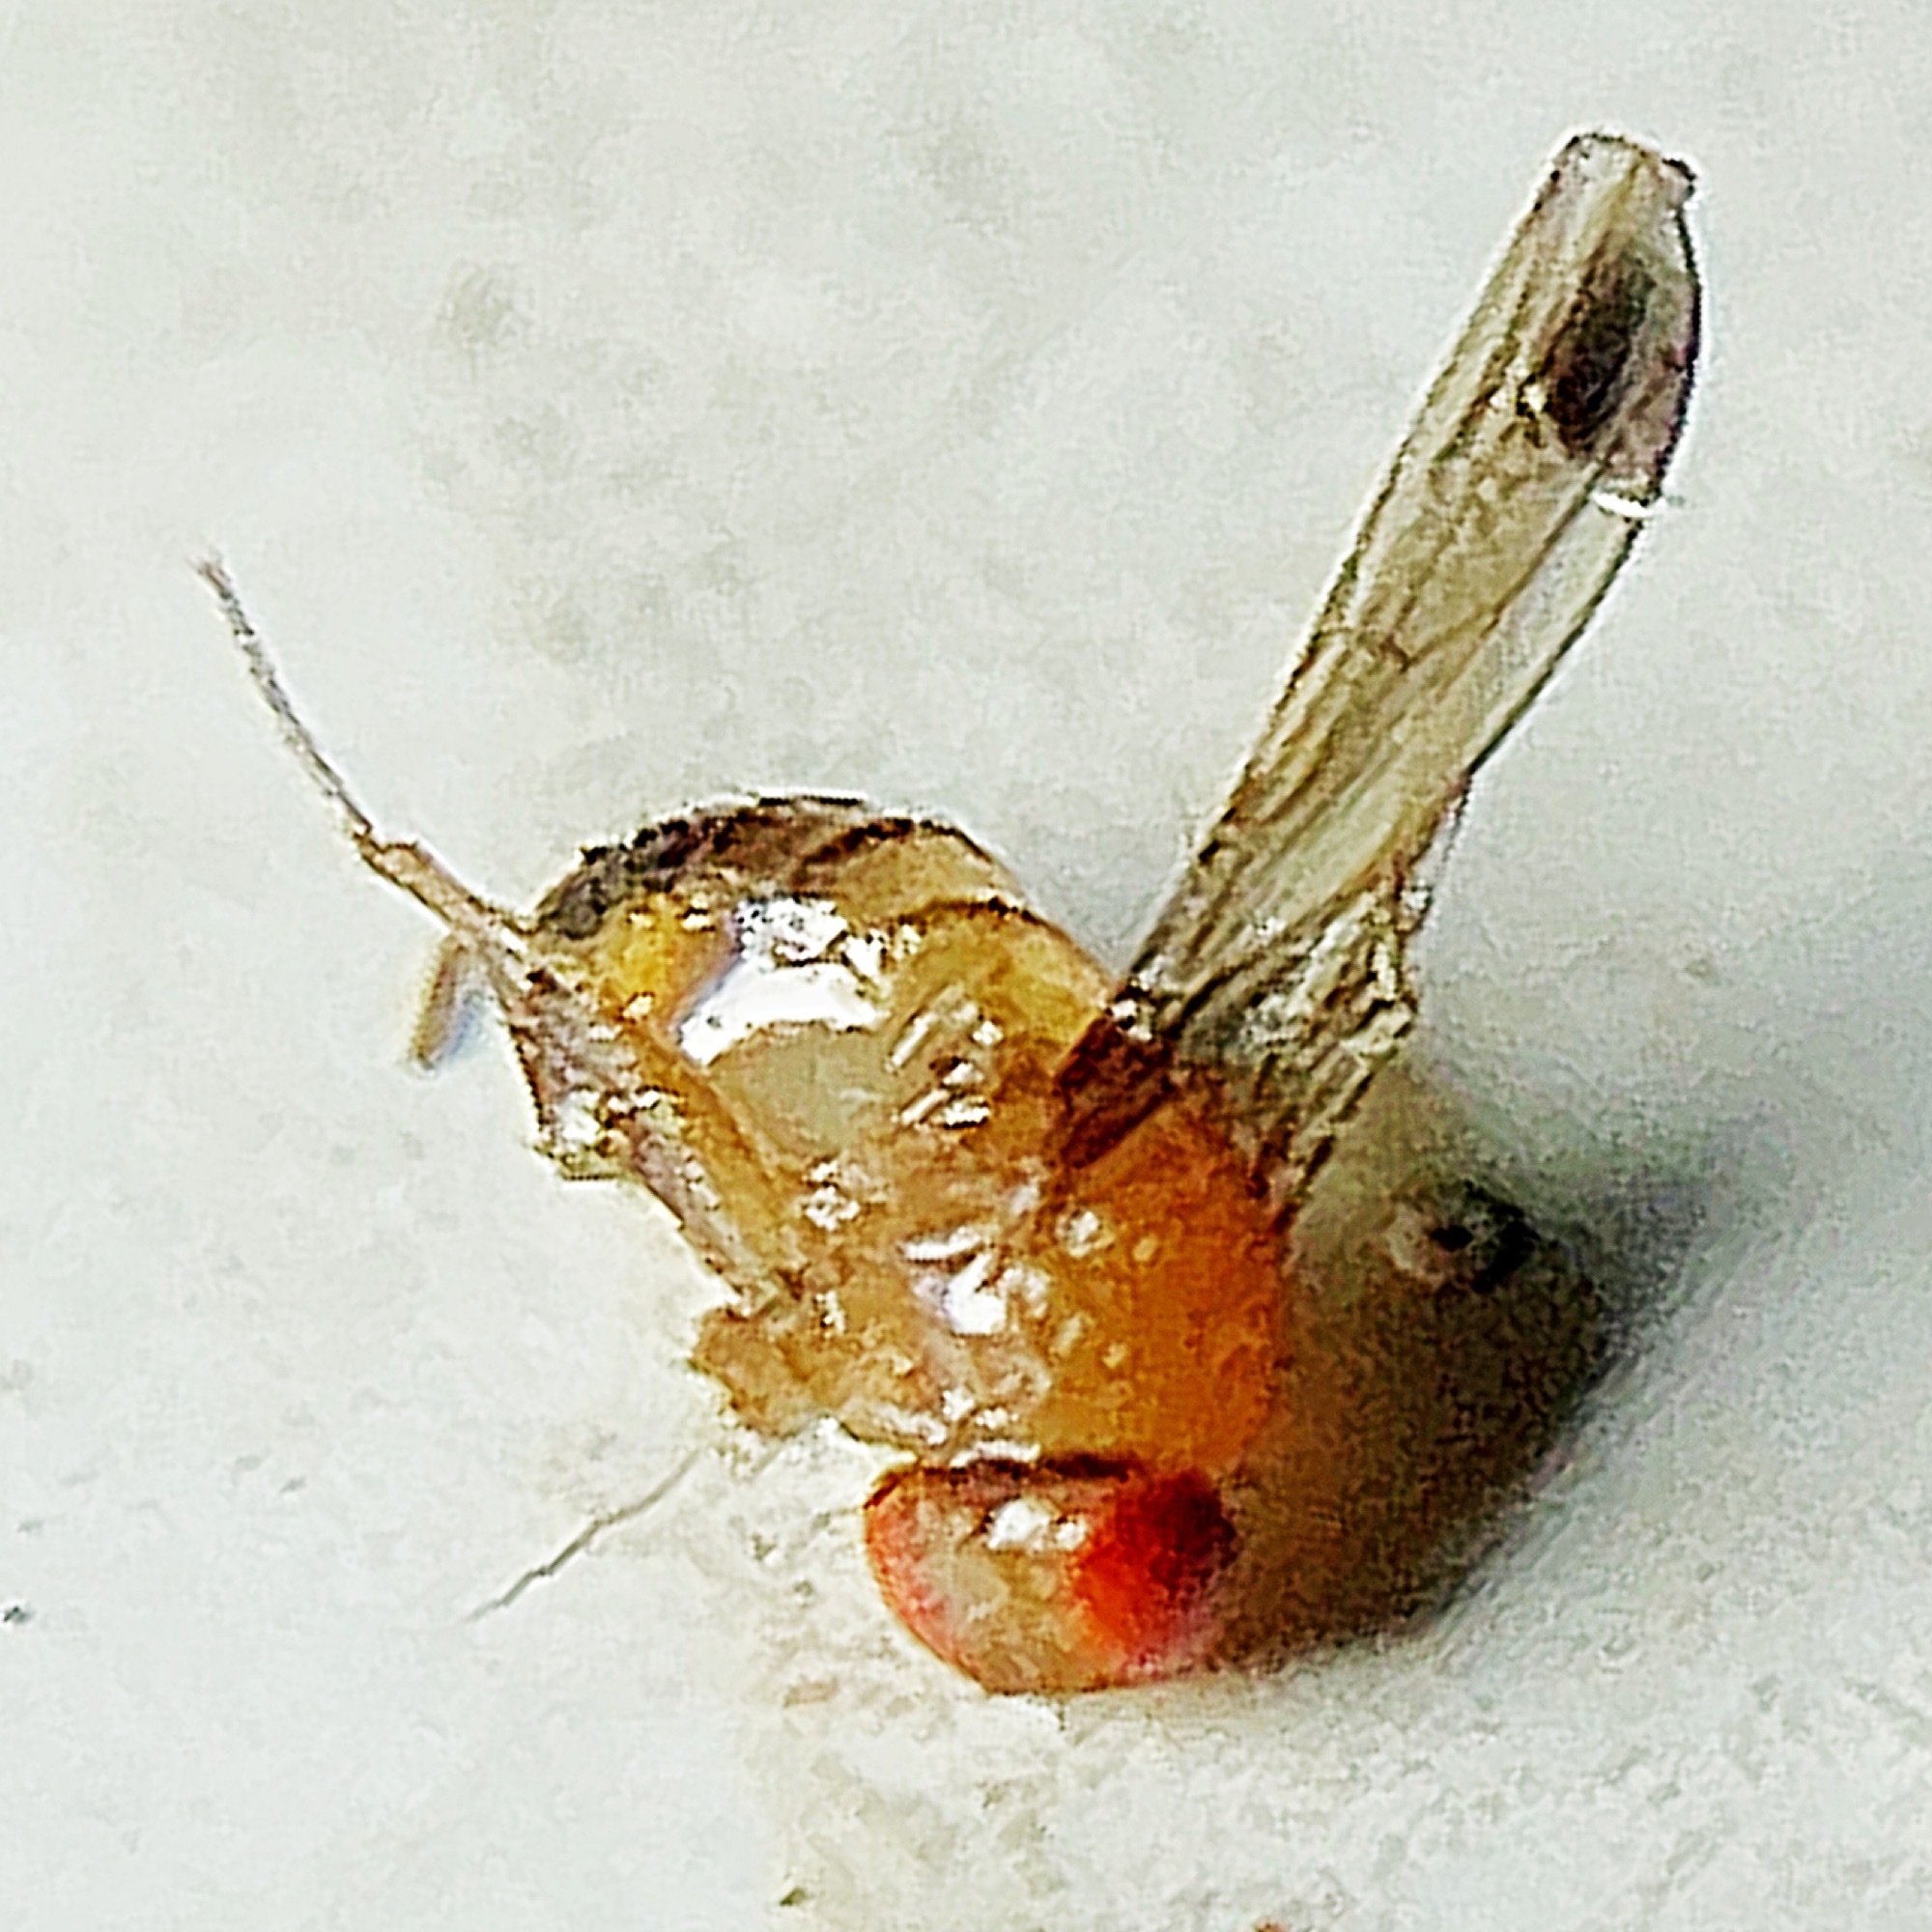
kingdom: Animalia
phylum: Arthropoda
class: Insecta
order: Diptera
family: Drosophilidae
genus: Drosophila
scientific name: Drosophila suzukii
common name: Spotted-wing drosophila
